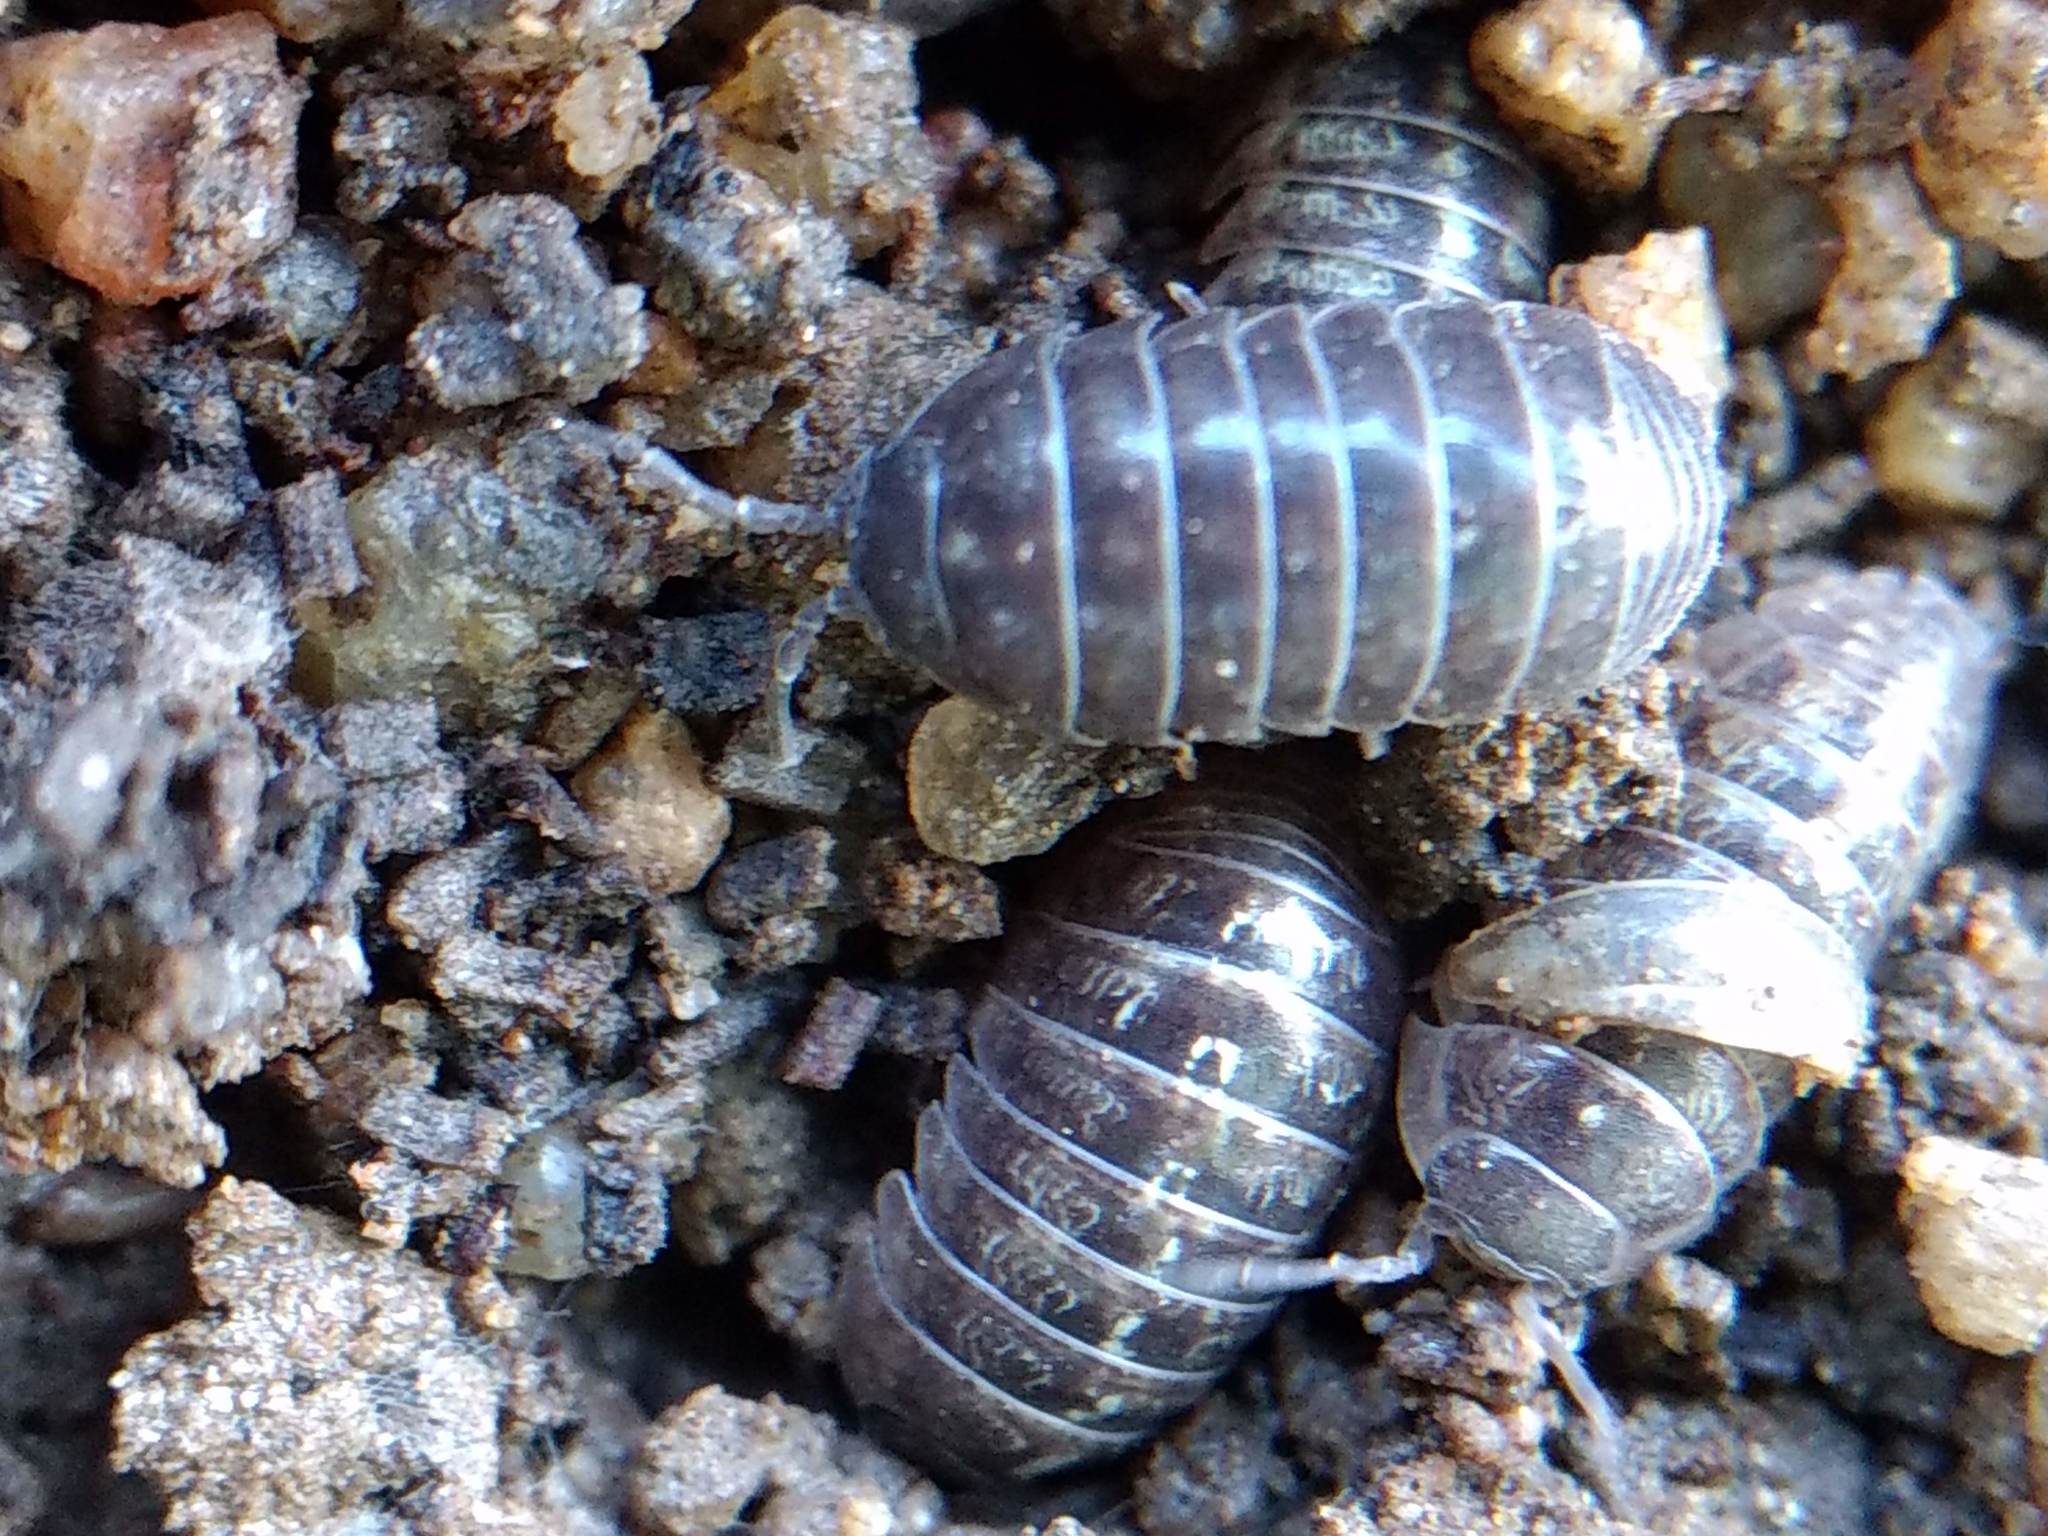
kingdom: Animalia
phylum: Arthropoda
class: Malacostraca
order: Isopoda
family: Armadillidiidae
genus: Armadillidium
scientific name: Armadillidium vulgare
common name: Common pill woodlouse
